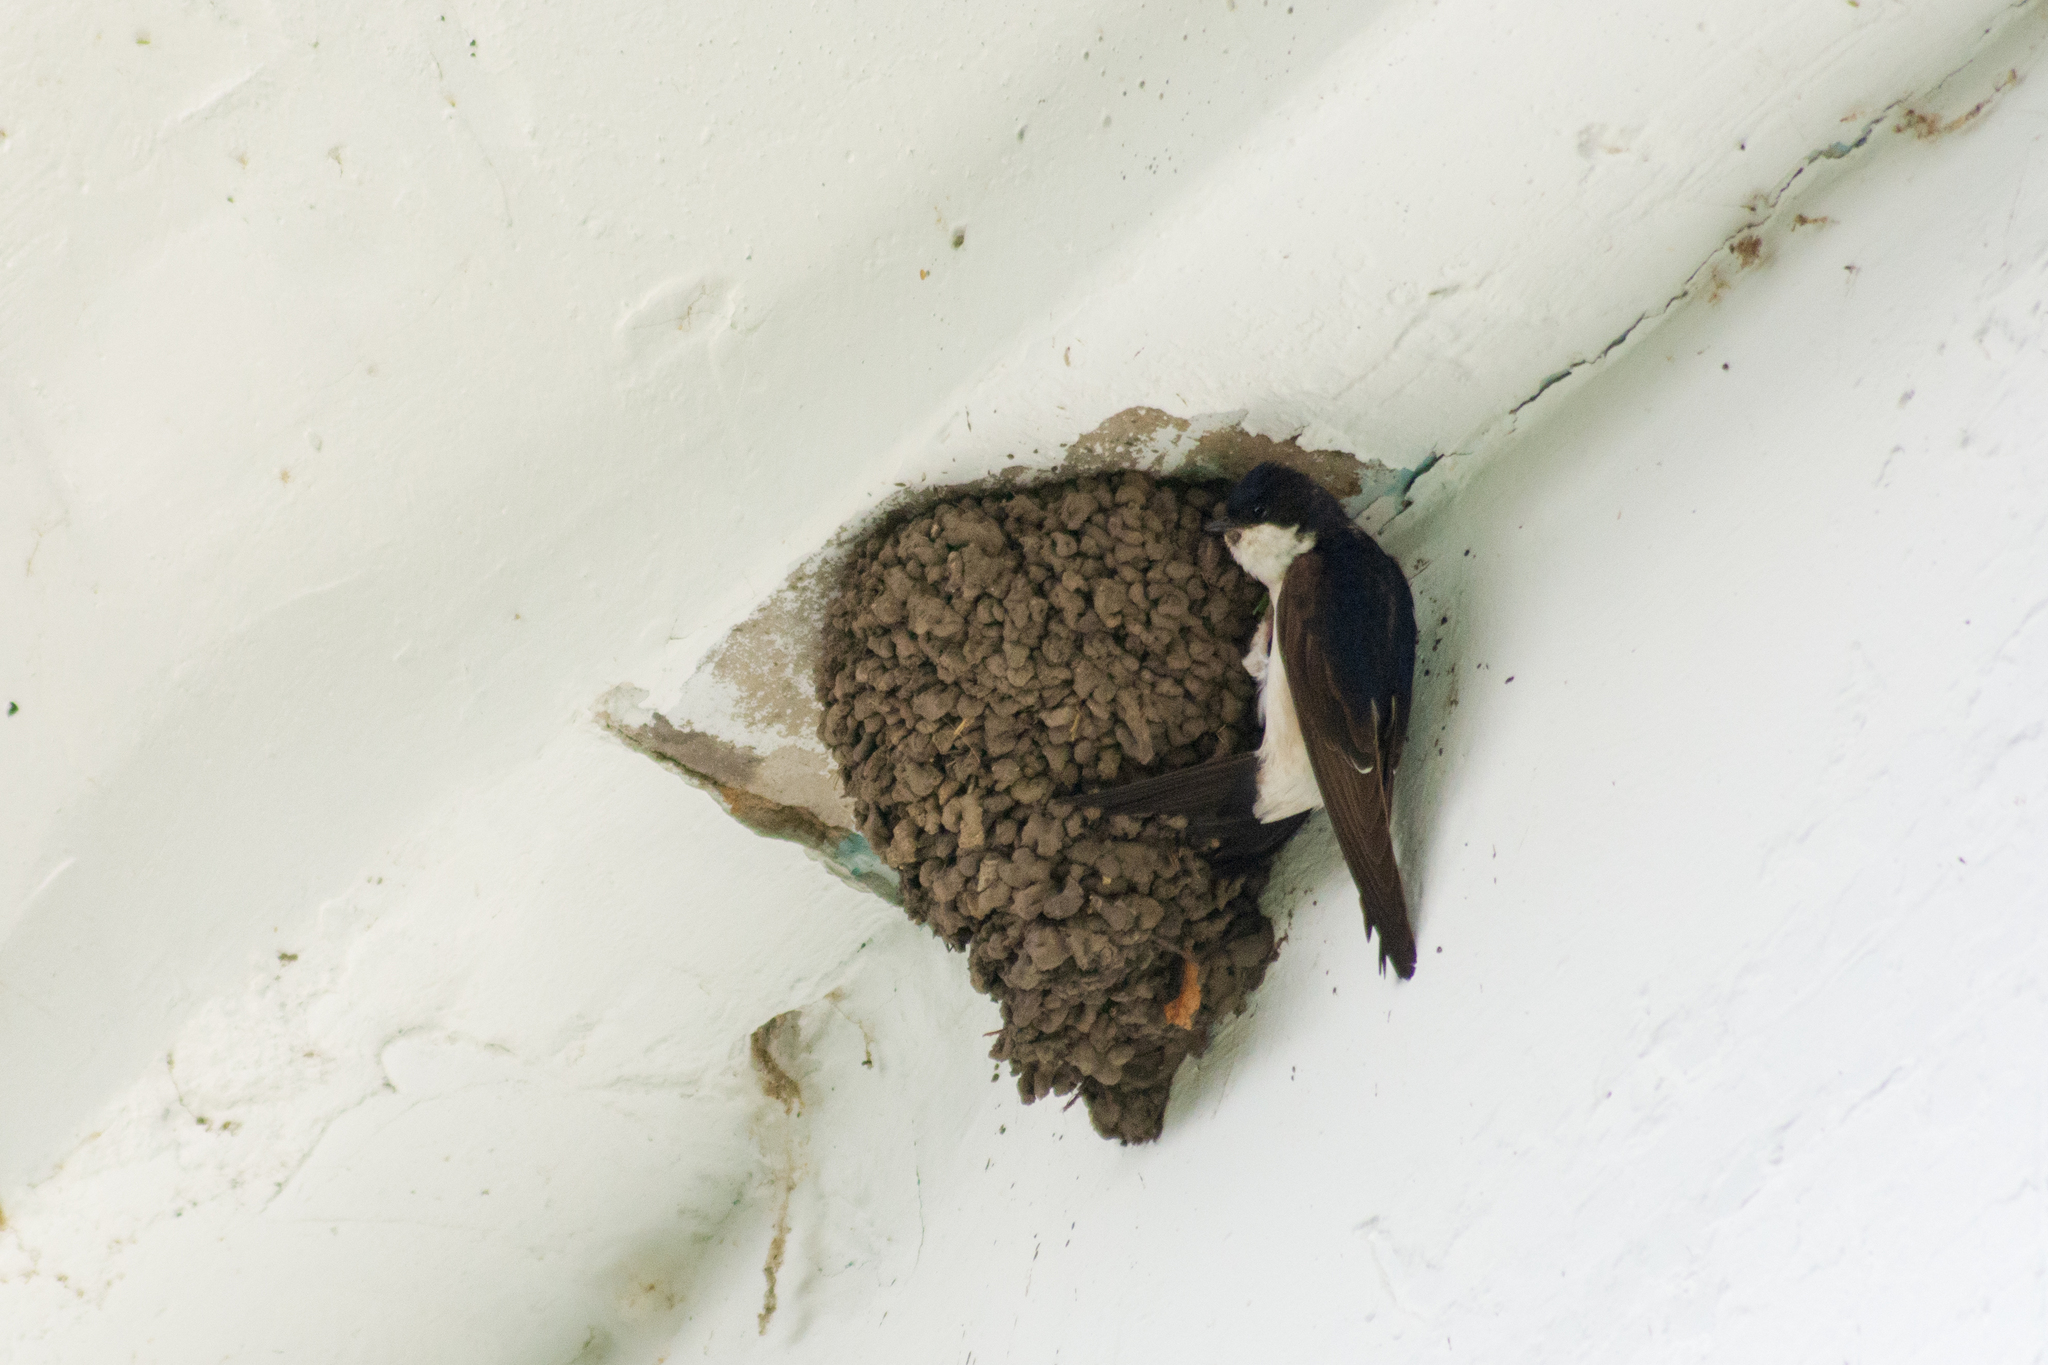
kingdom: Animalia
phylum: Chordata
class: Aves
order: Passeriformes
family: Hirundinidae
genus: Delichon
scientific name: Delichon urbicum
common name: Common house martin
